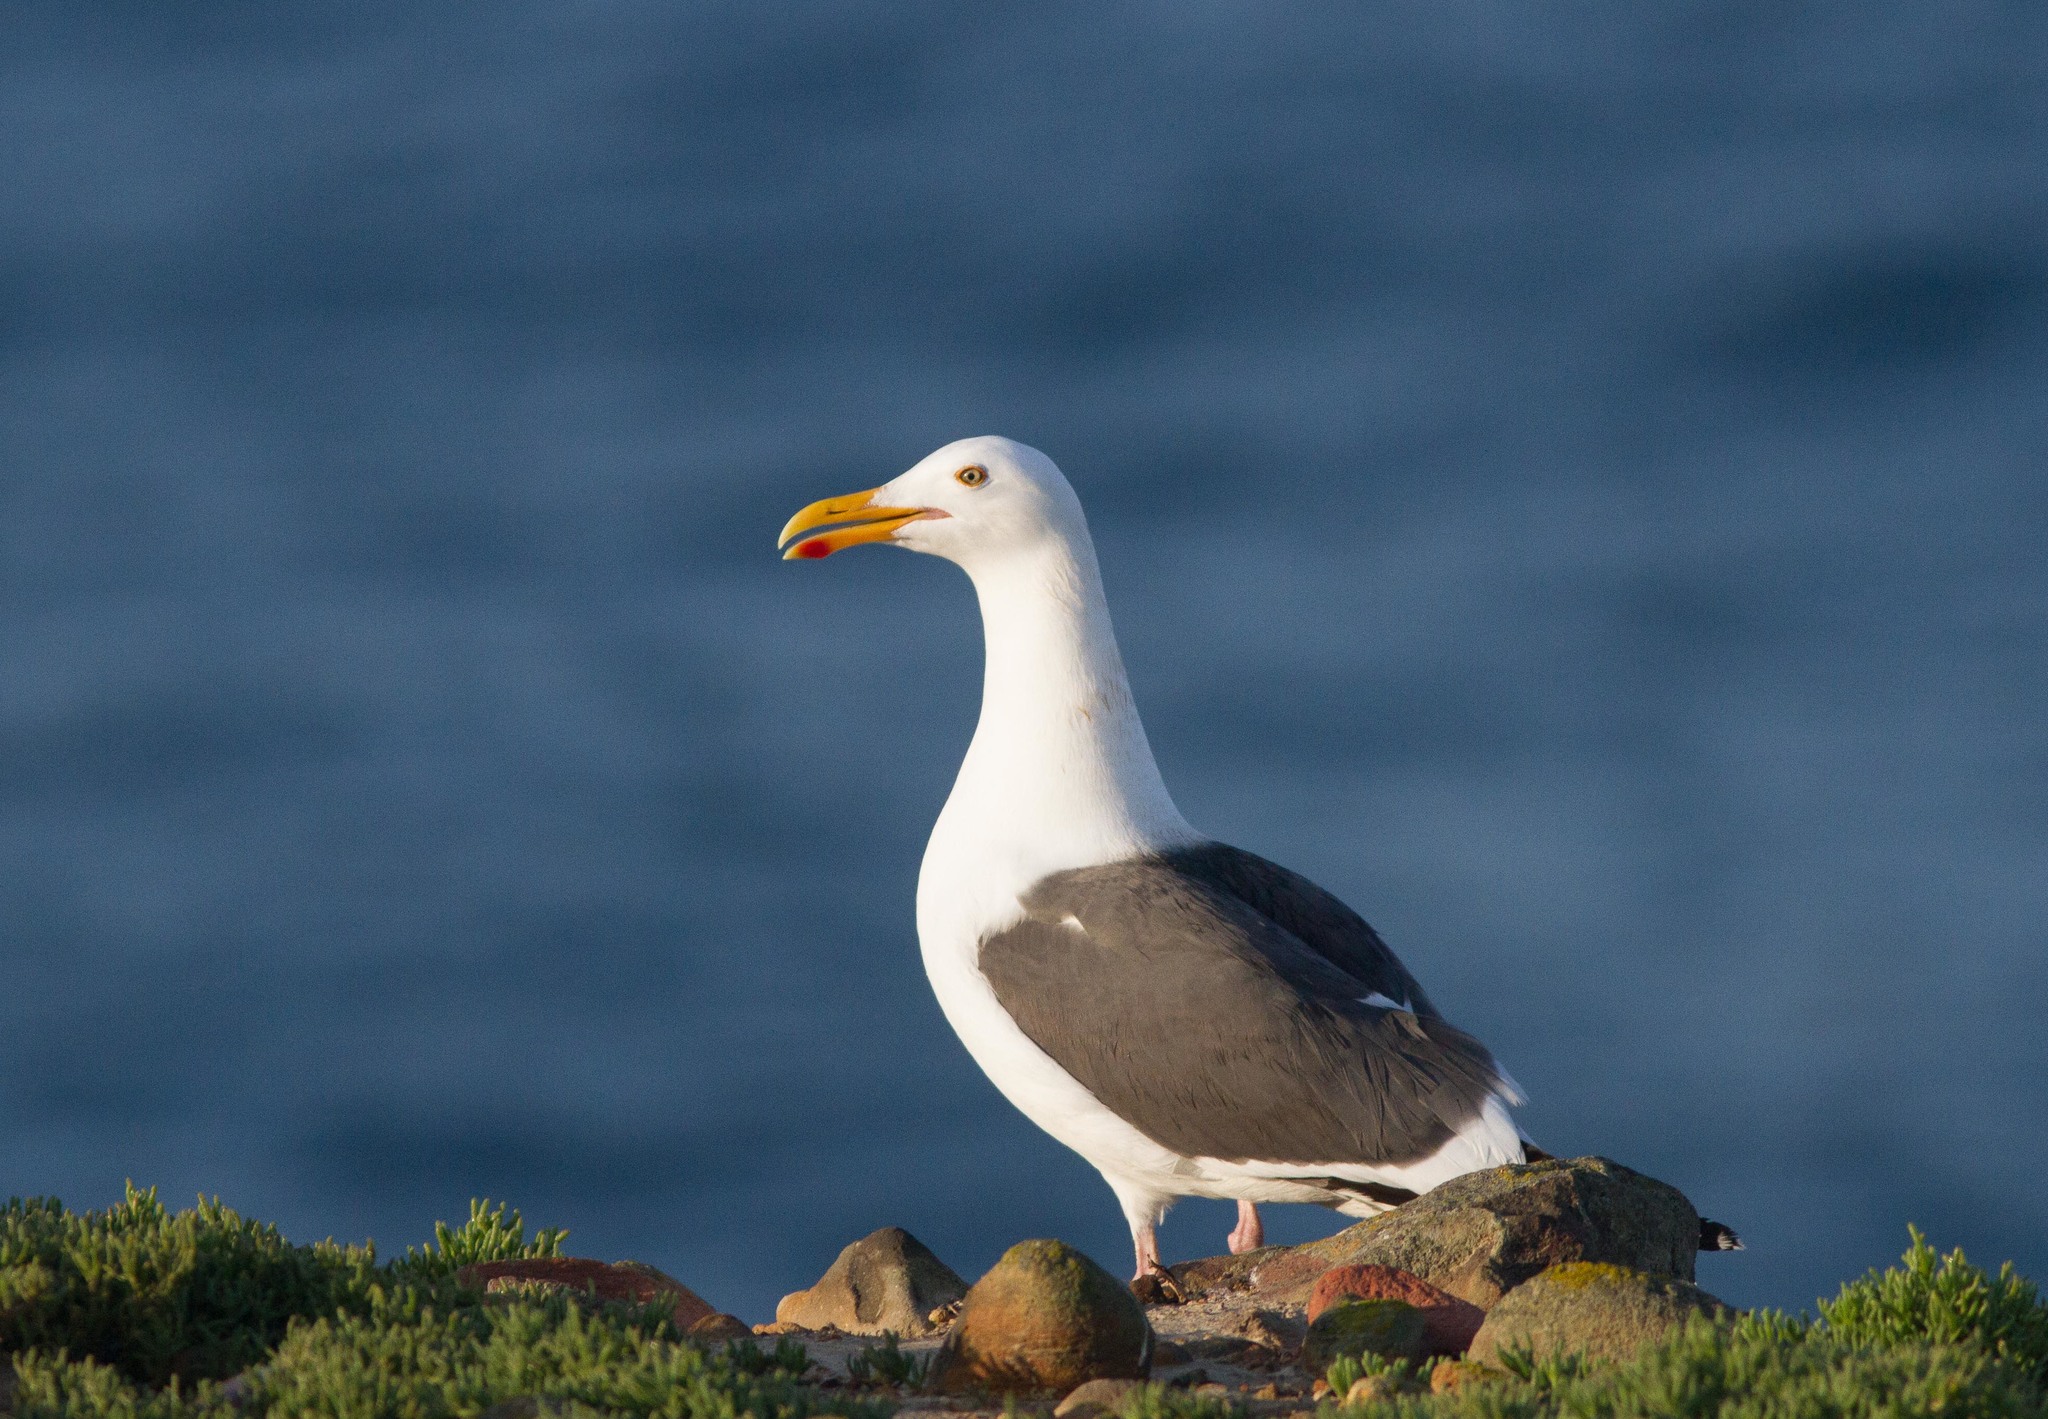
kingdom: Animalia
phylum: Chordata
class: Aves
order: Charadriiformes
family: Laridae
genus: Larus
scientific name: Larus occidentalis
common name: Western gull
